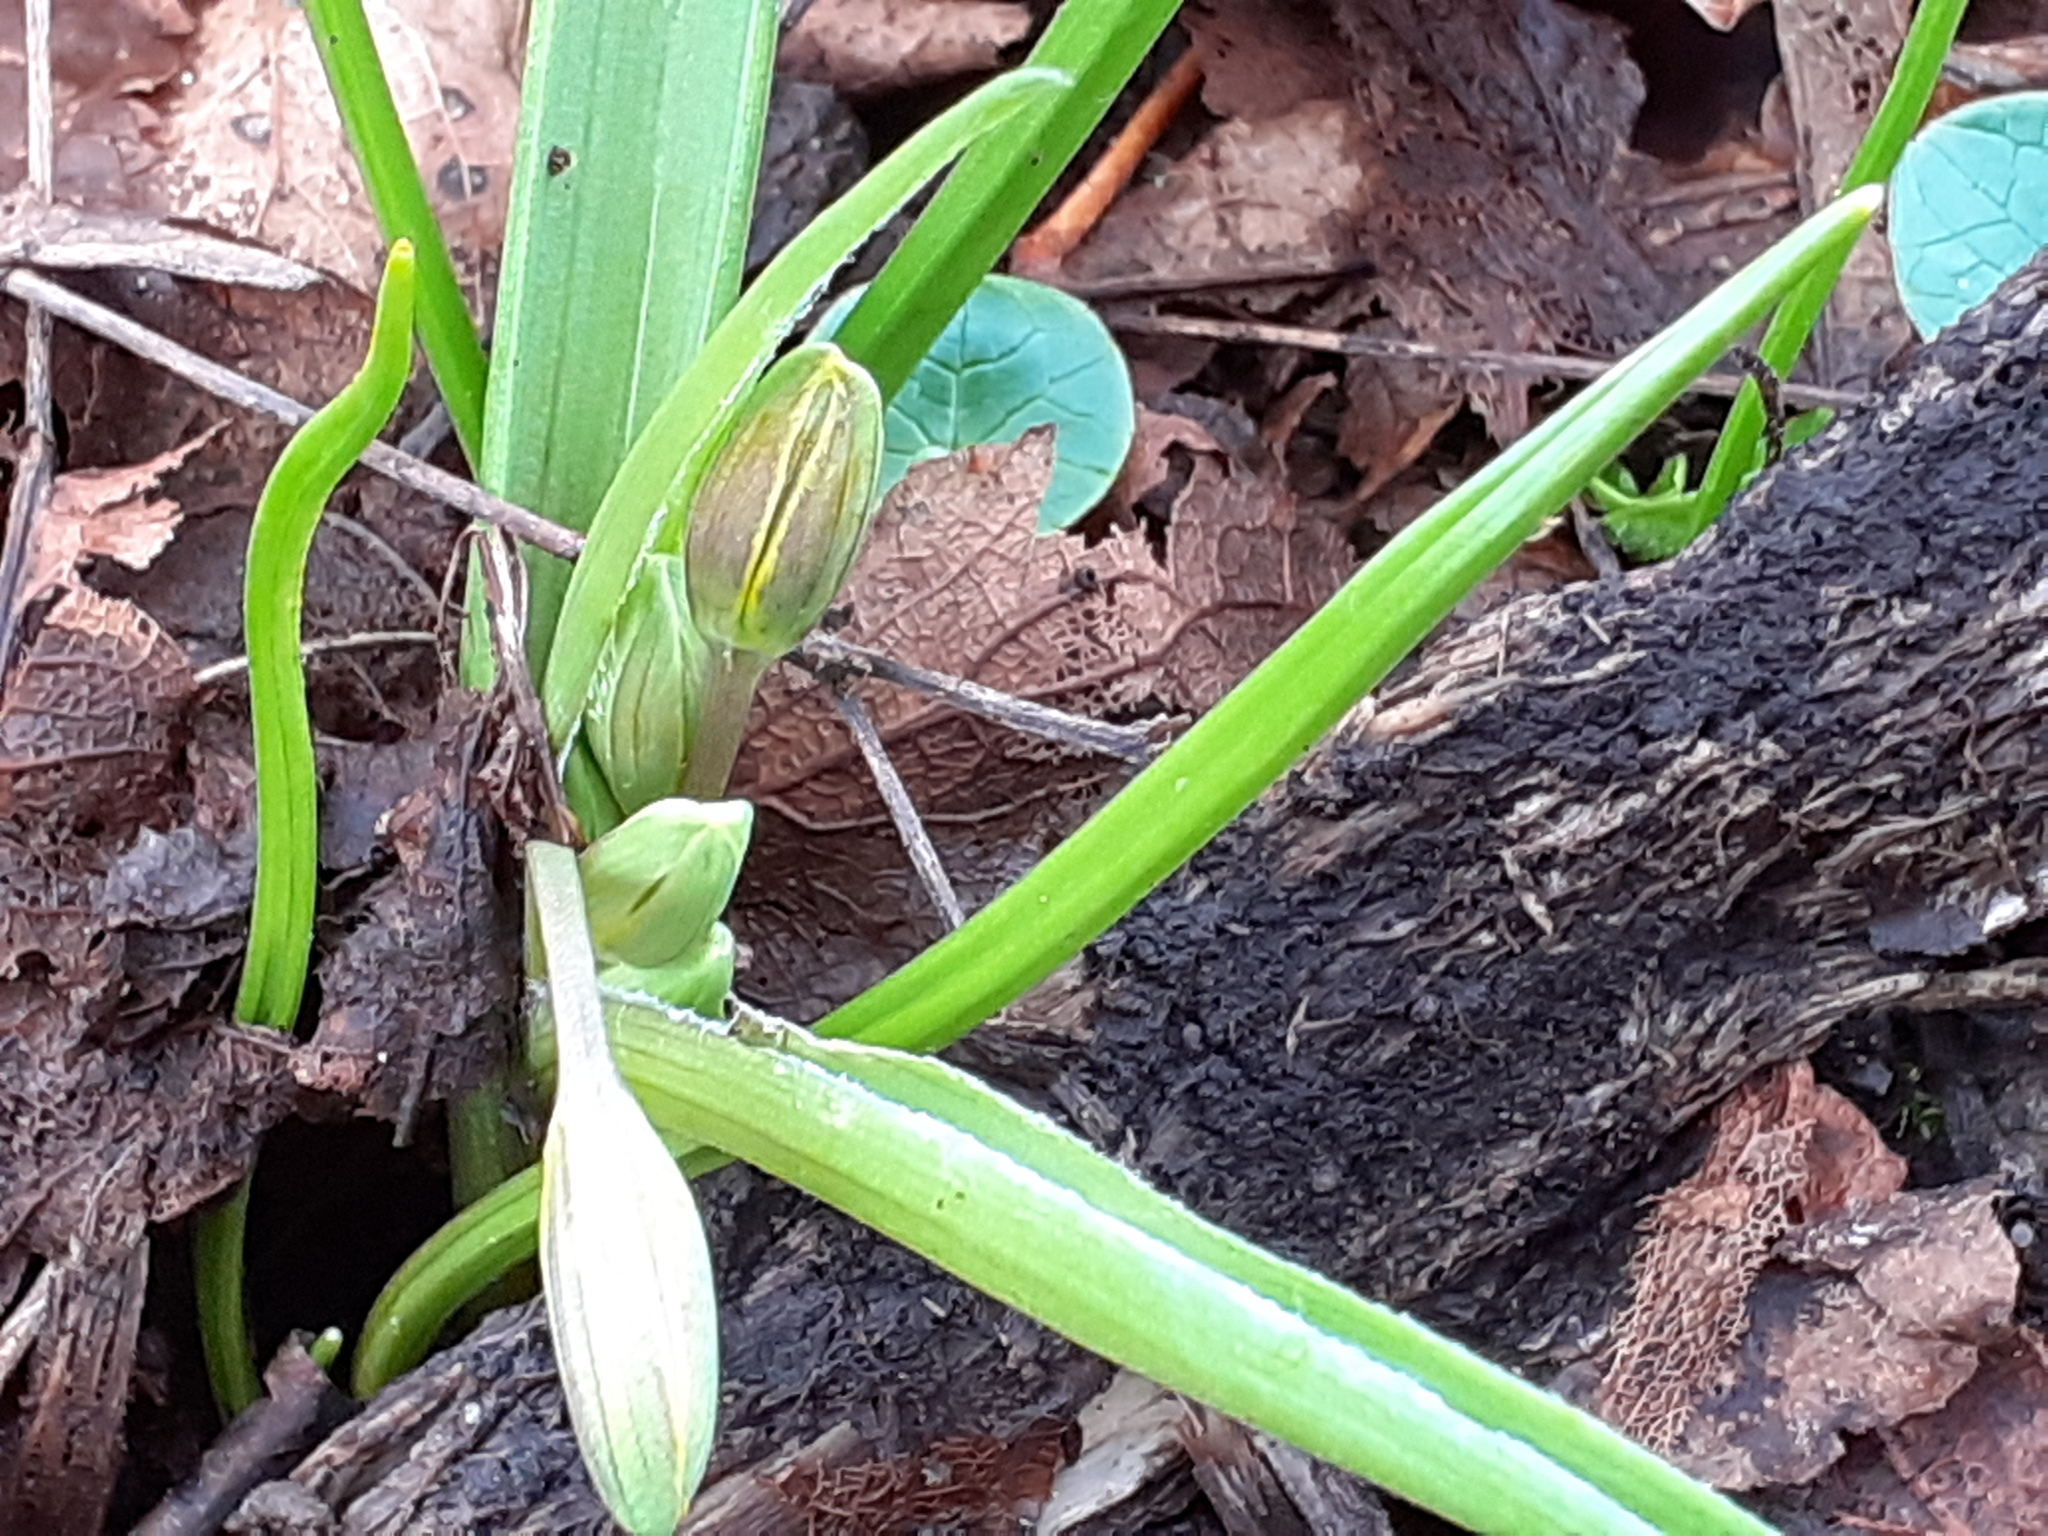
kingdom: Plantae
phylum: Tracheophyta
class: Liliopsida
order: Liliales
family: Liliaceae
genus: Gagea
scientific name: Gagea lutea
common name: Yellow star-of-bethlehem
